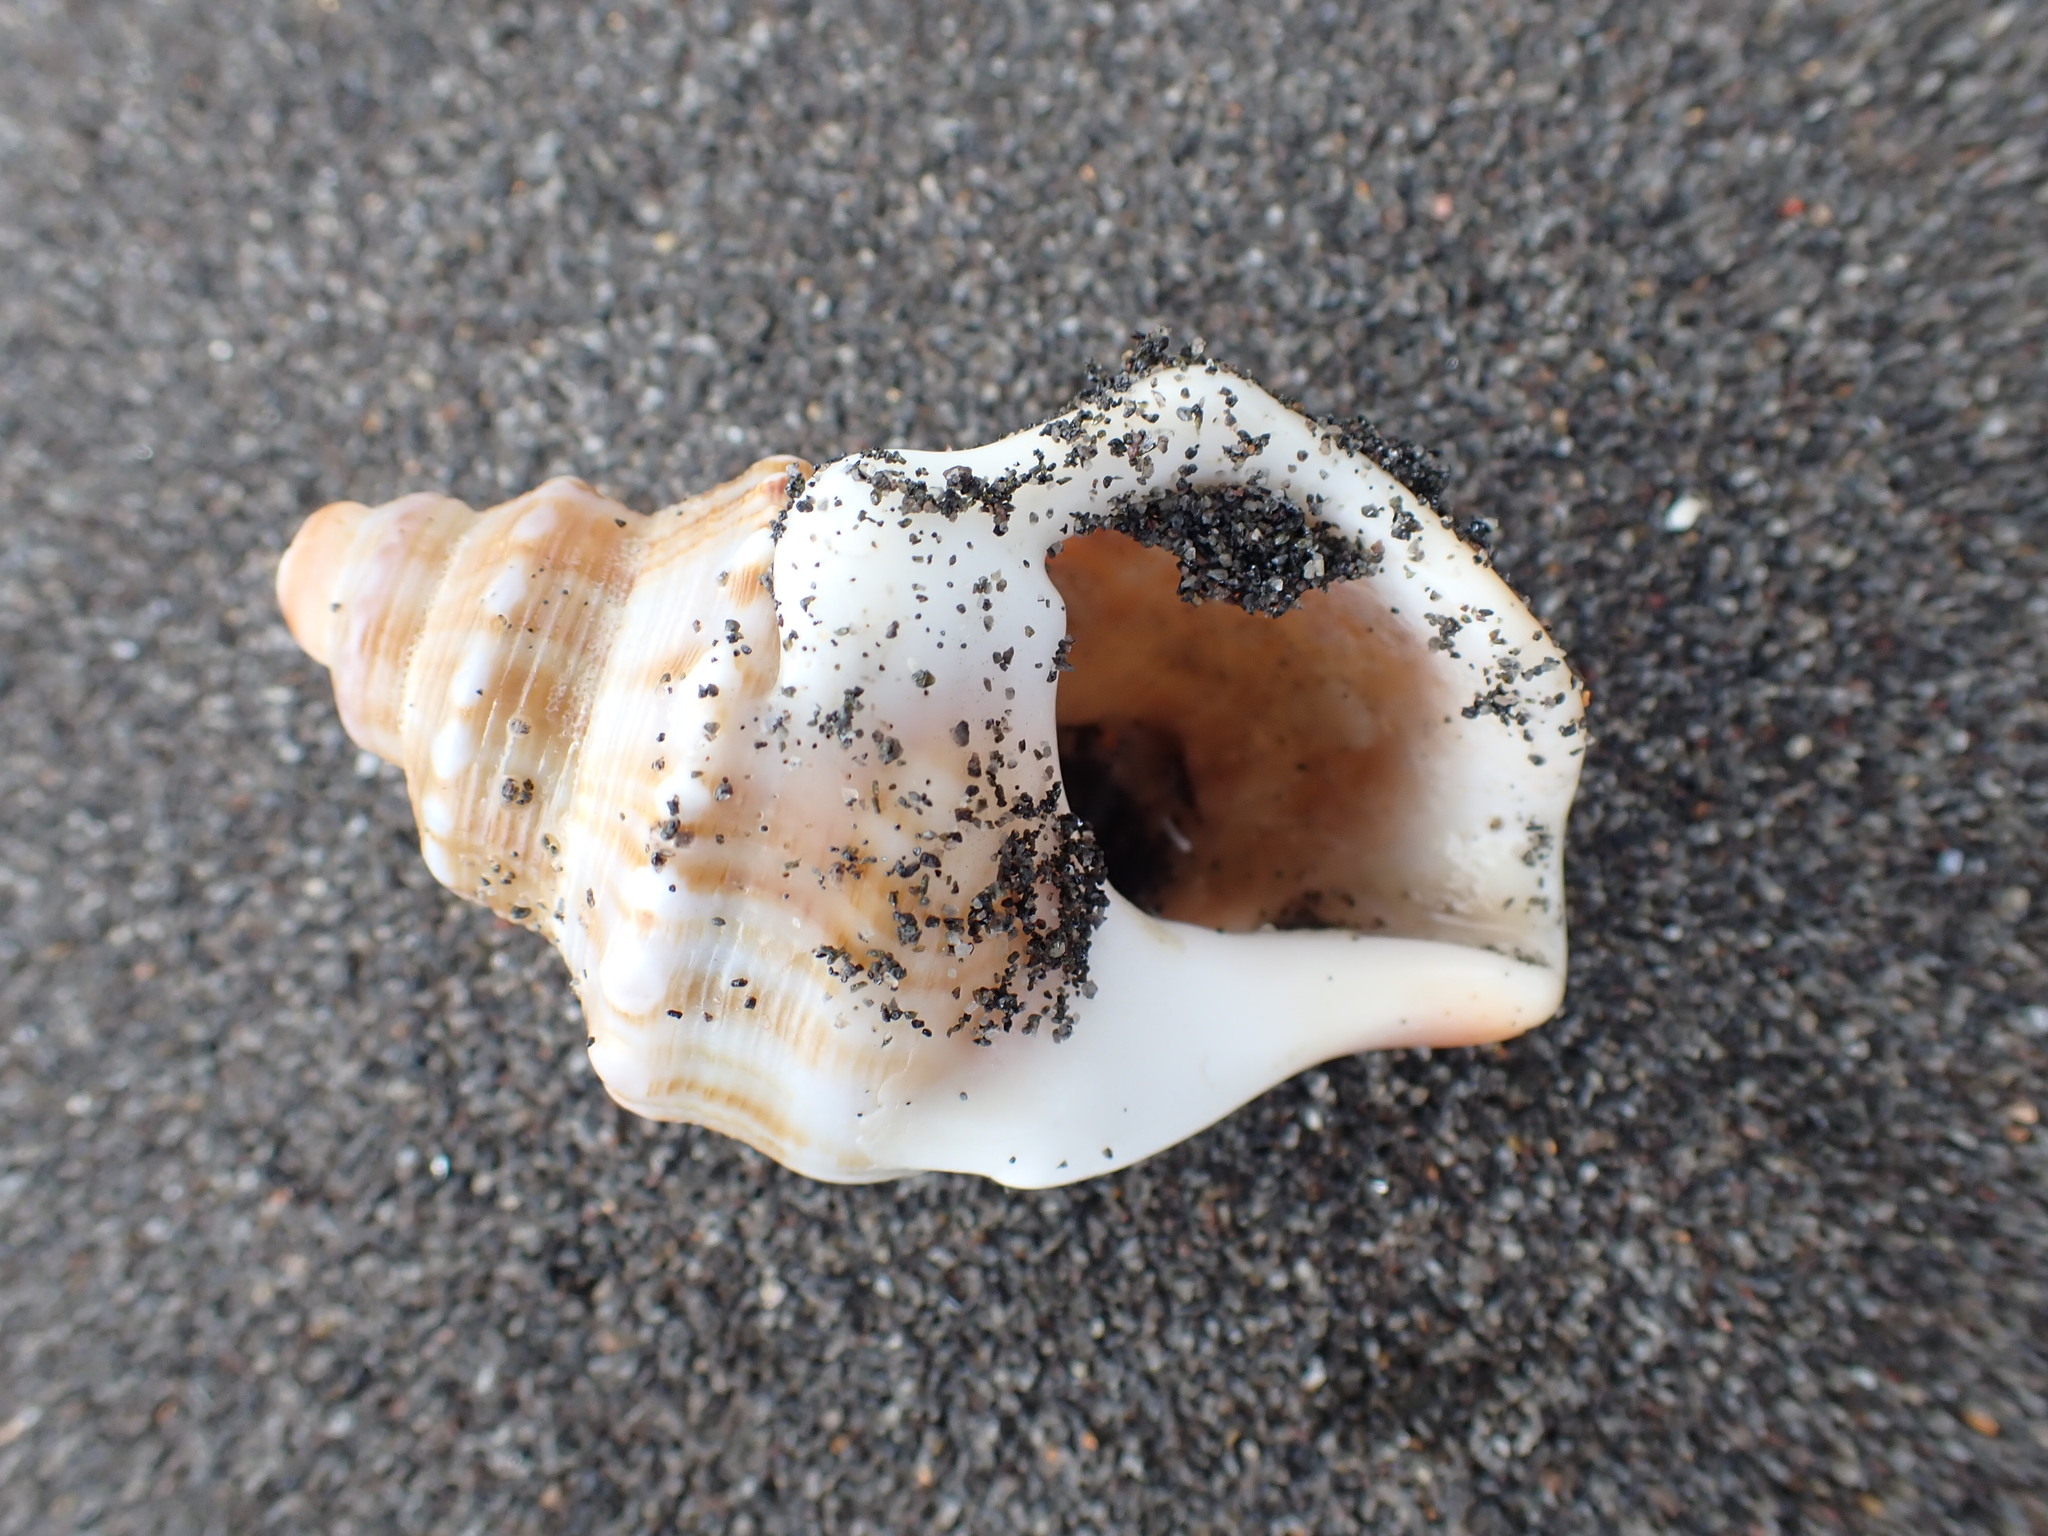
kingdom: Animalia
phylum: Mollusca
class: Gastropoda
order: Littorinimorpha
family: Struthiolariidae
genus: Struthiolaria
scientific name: Struthiolaria papulosa
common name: Large ostrich foot
